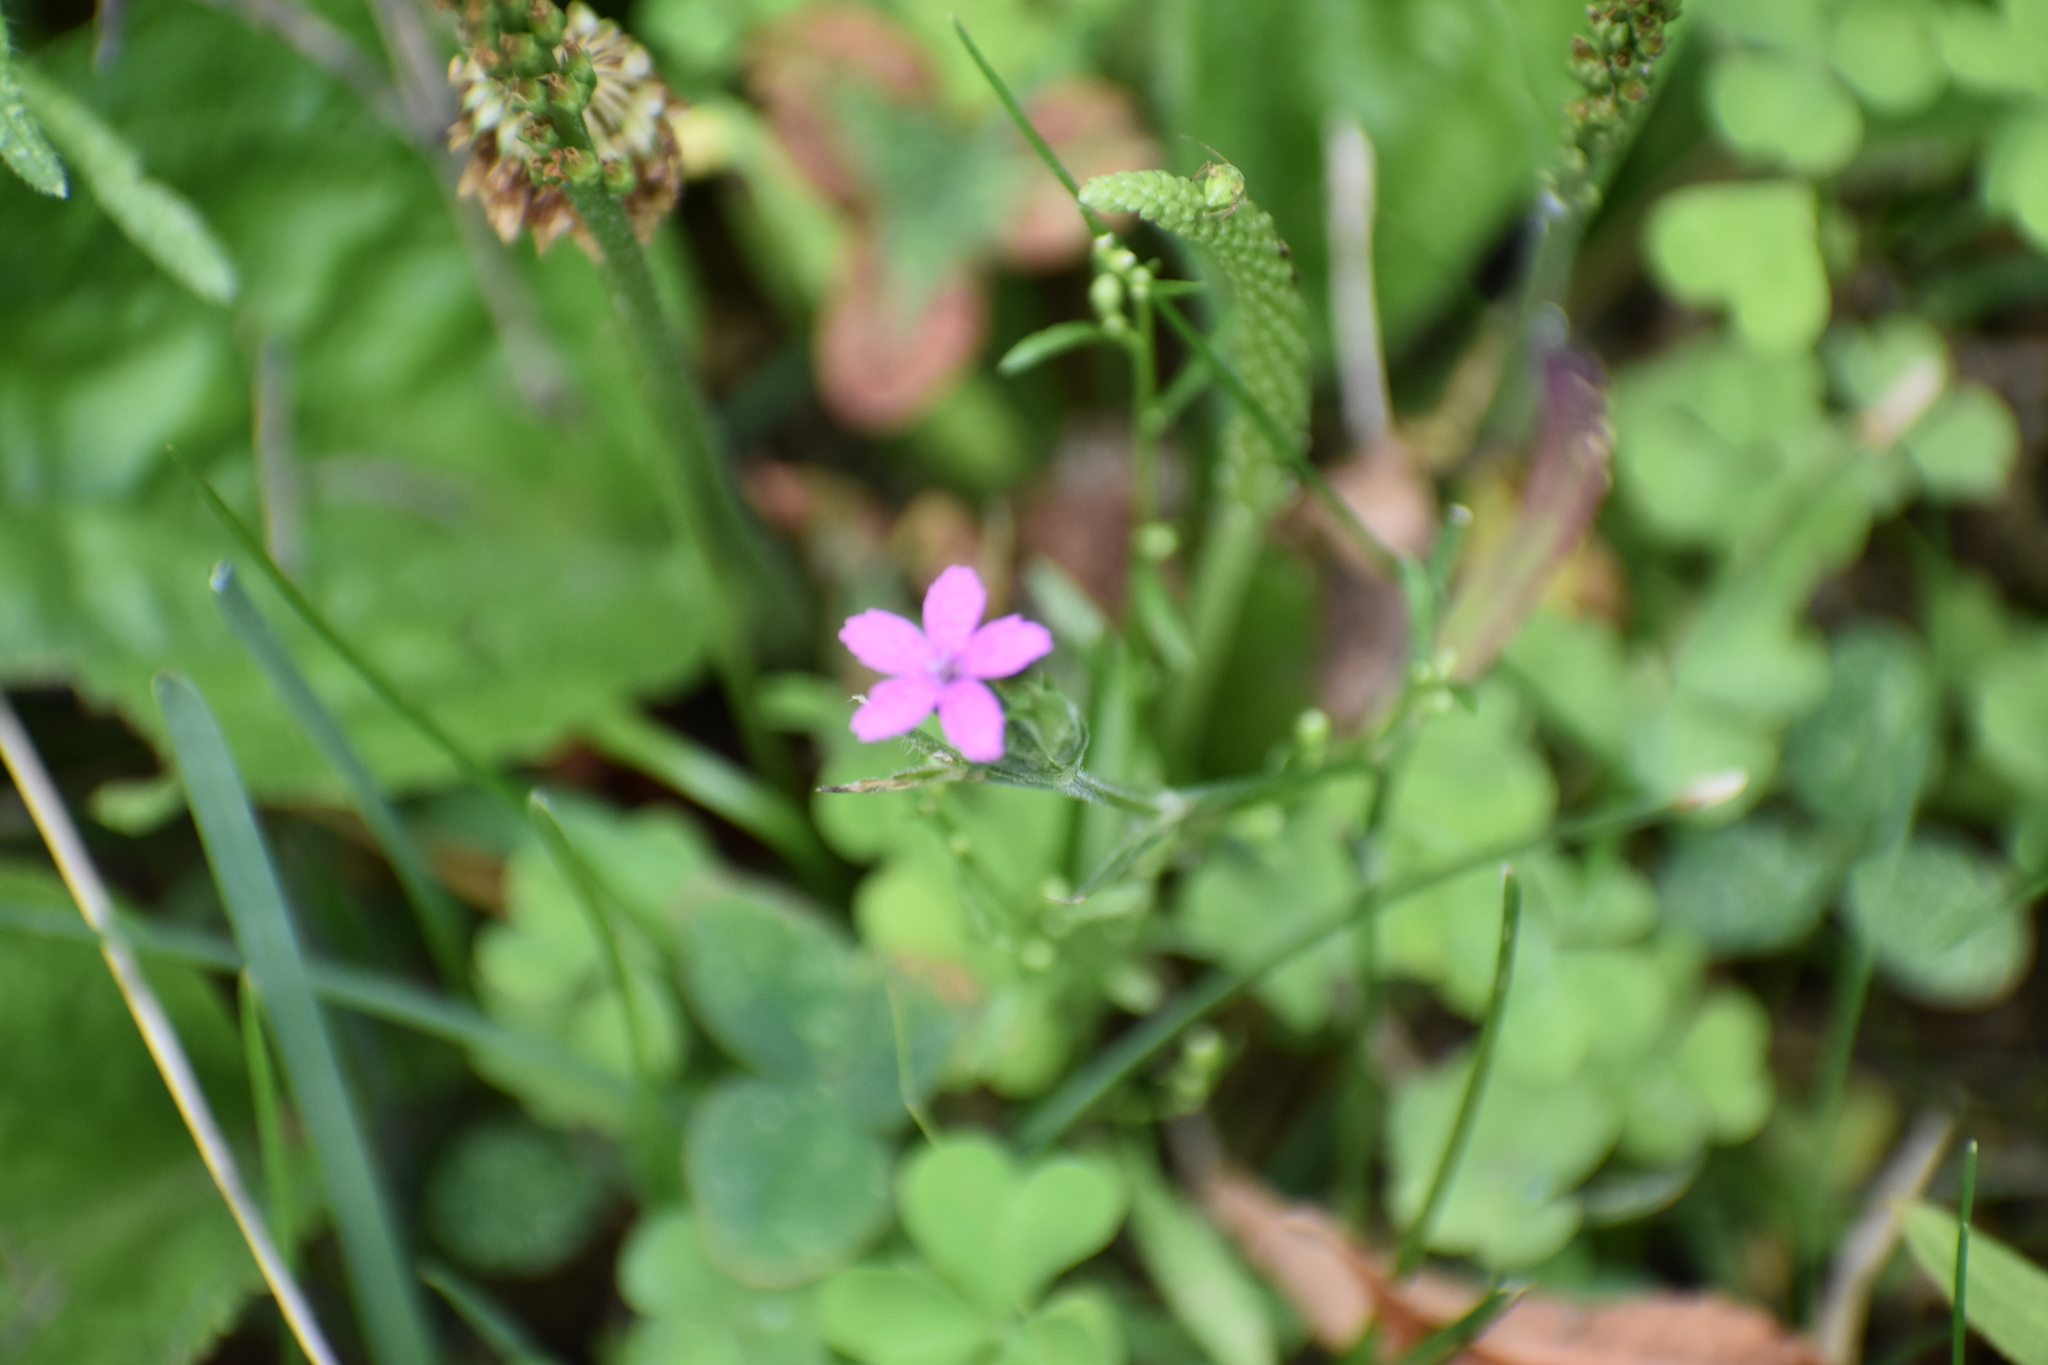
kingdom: Plantae
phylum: Tracheophyta
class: Magnoliopsida
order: Caryophyllales
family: Caryophyllaceae
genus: Dianthus
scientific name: Dianthus armeria
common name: Deptford pink
